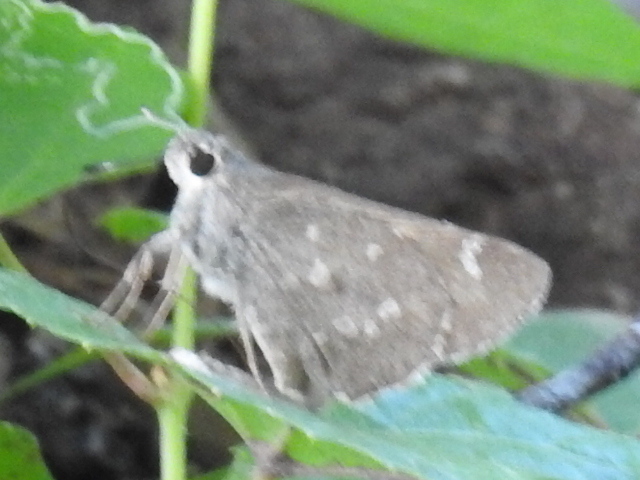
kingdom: Animalia
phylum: Arthropoda
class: Insecta
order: Lepidoptera
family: Hesperiidae
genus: Atrytonopsis
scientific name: Atrytonopsis ovinia
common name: Ovinia skipper
